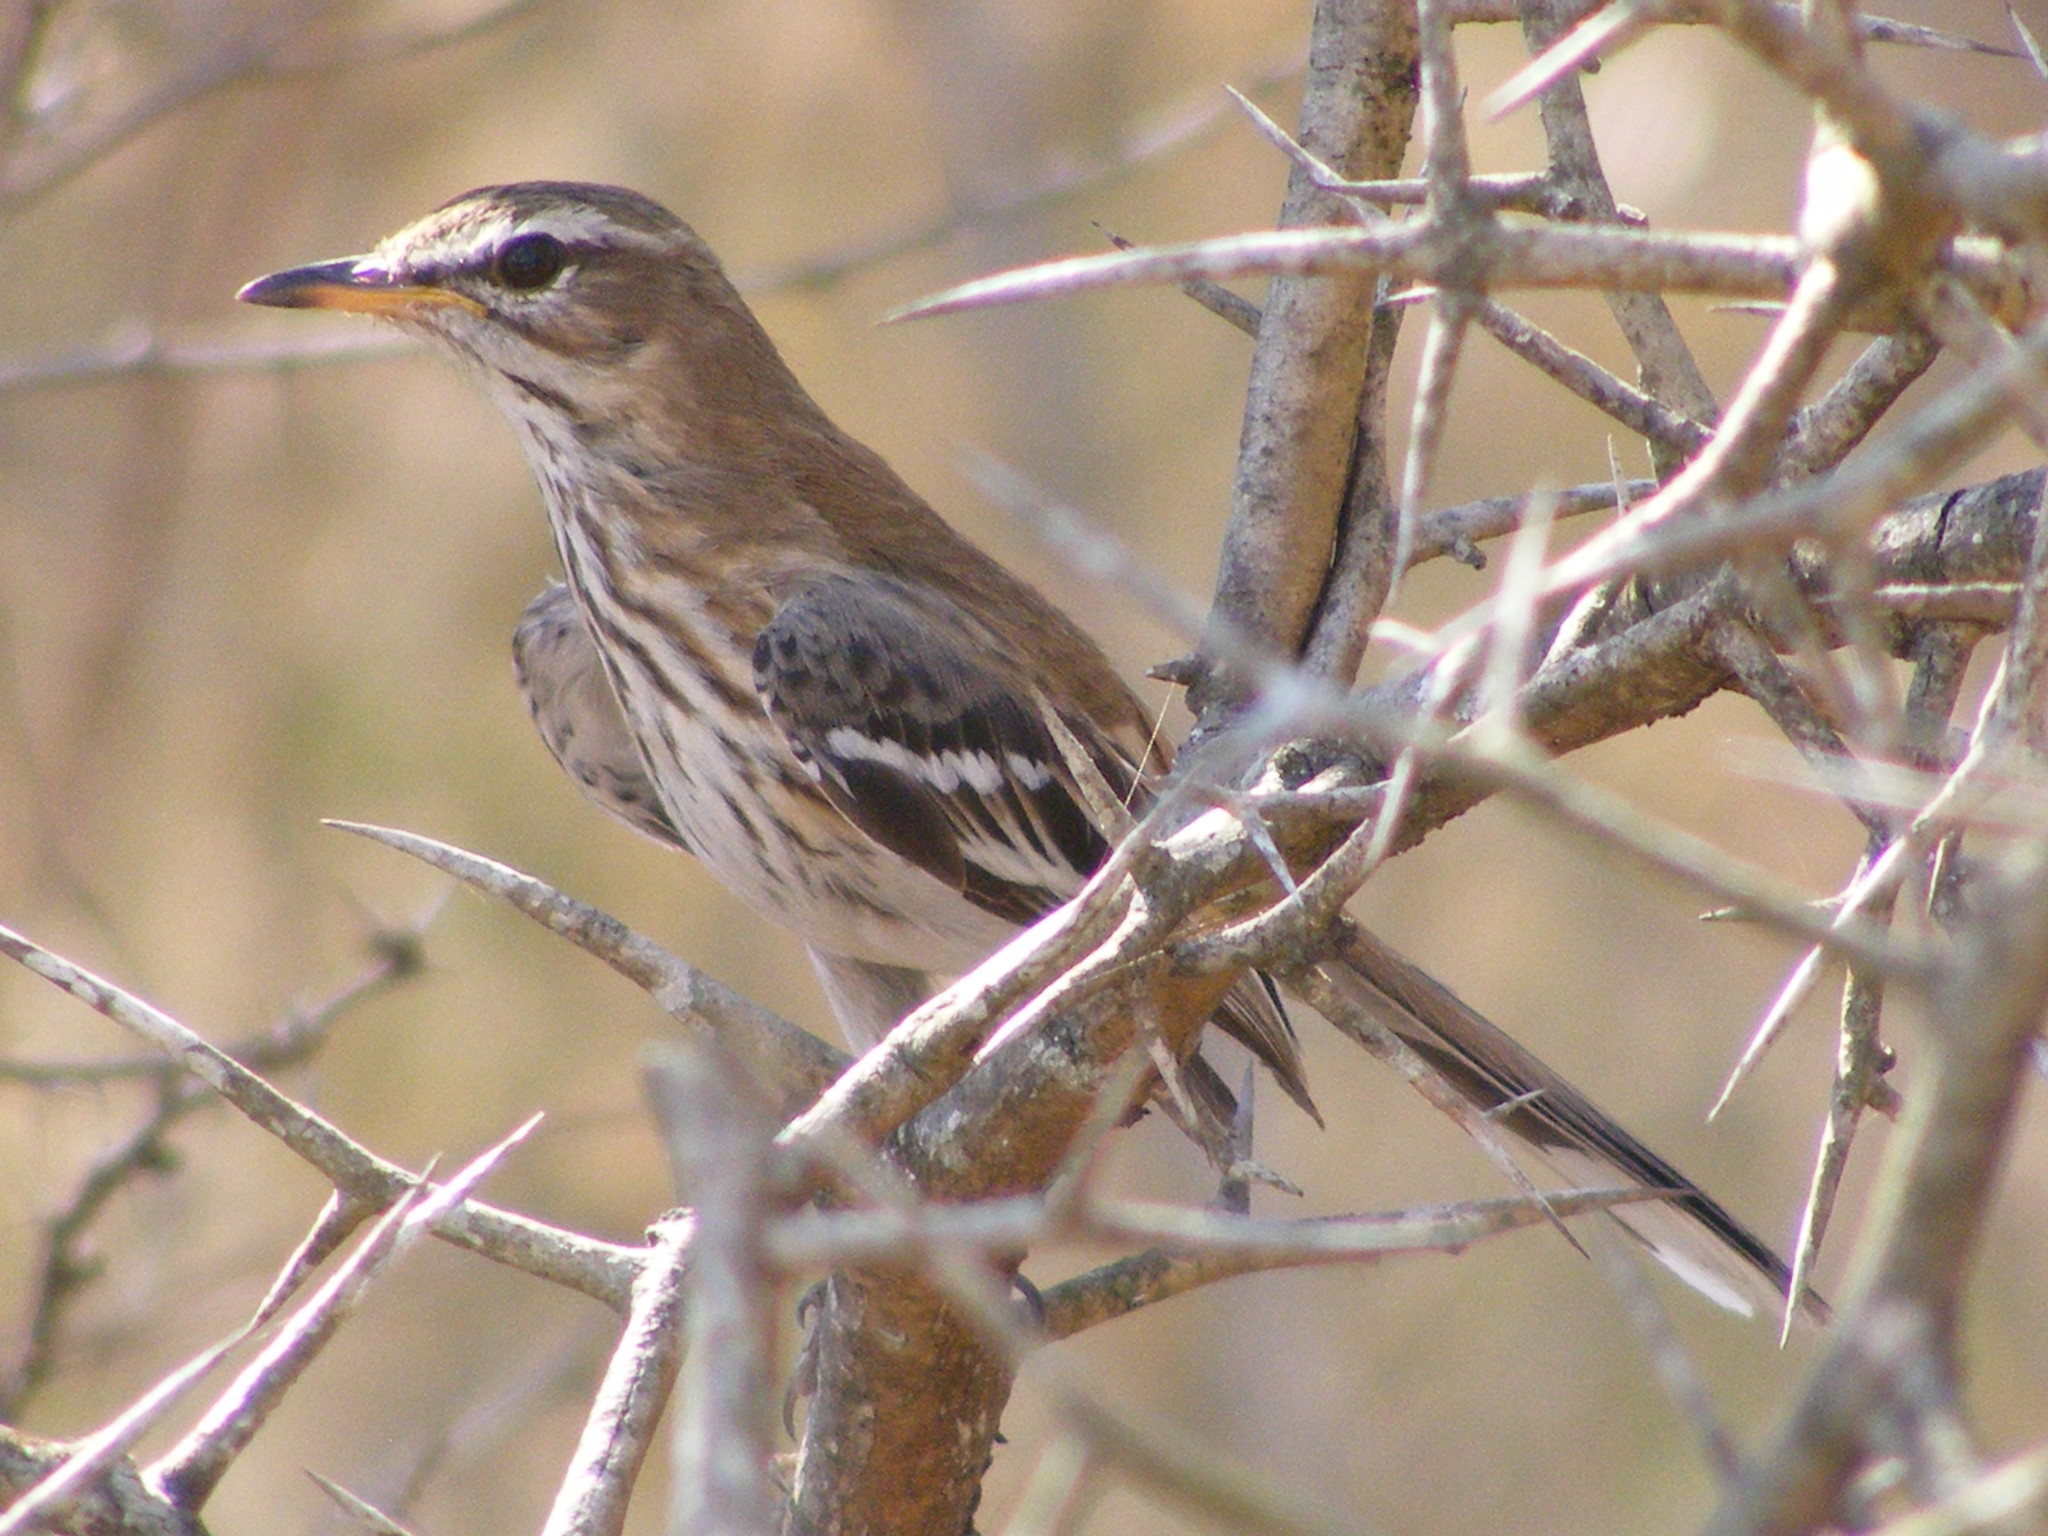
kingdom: Animalia
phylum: Chordata
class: Aves
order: Passeriformes
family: Muscicapidae
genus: Erythropygia
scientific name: Erythropygia leucophrys
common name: White-browed scrub robin
